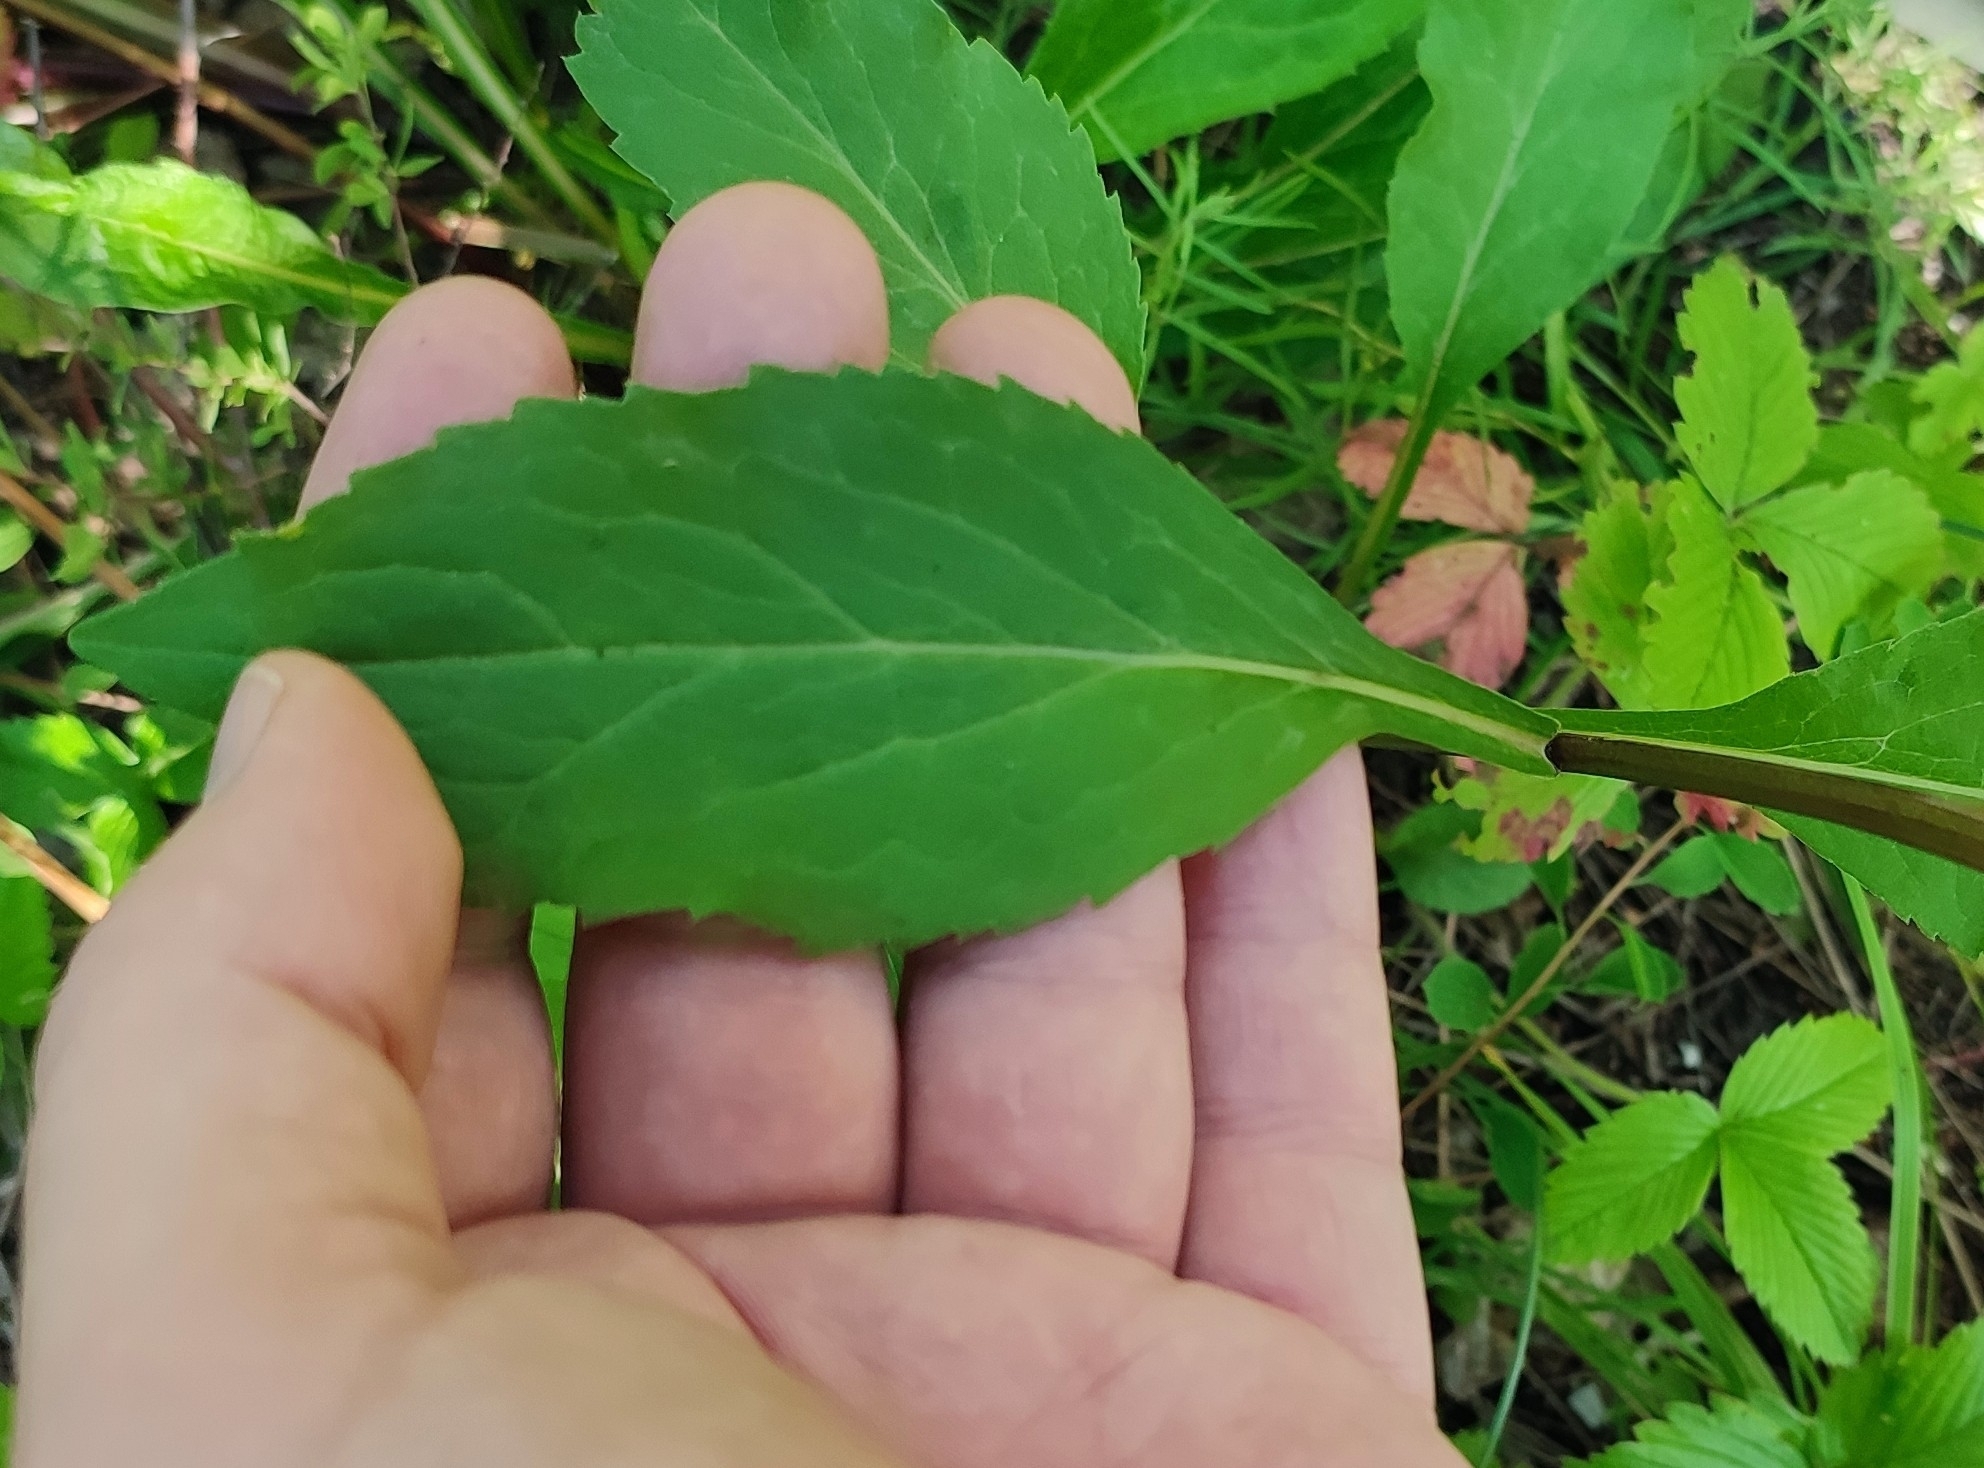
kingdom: Plantae
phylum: Tracheophyta
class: Magnoliopsida
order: Asterales
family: Asteraceae
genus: Solidago
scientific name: Solidago virgaurea
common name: Goldenrod
